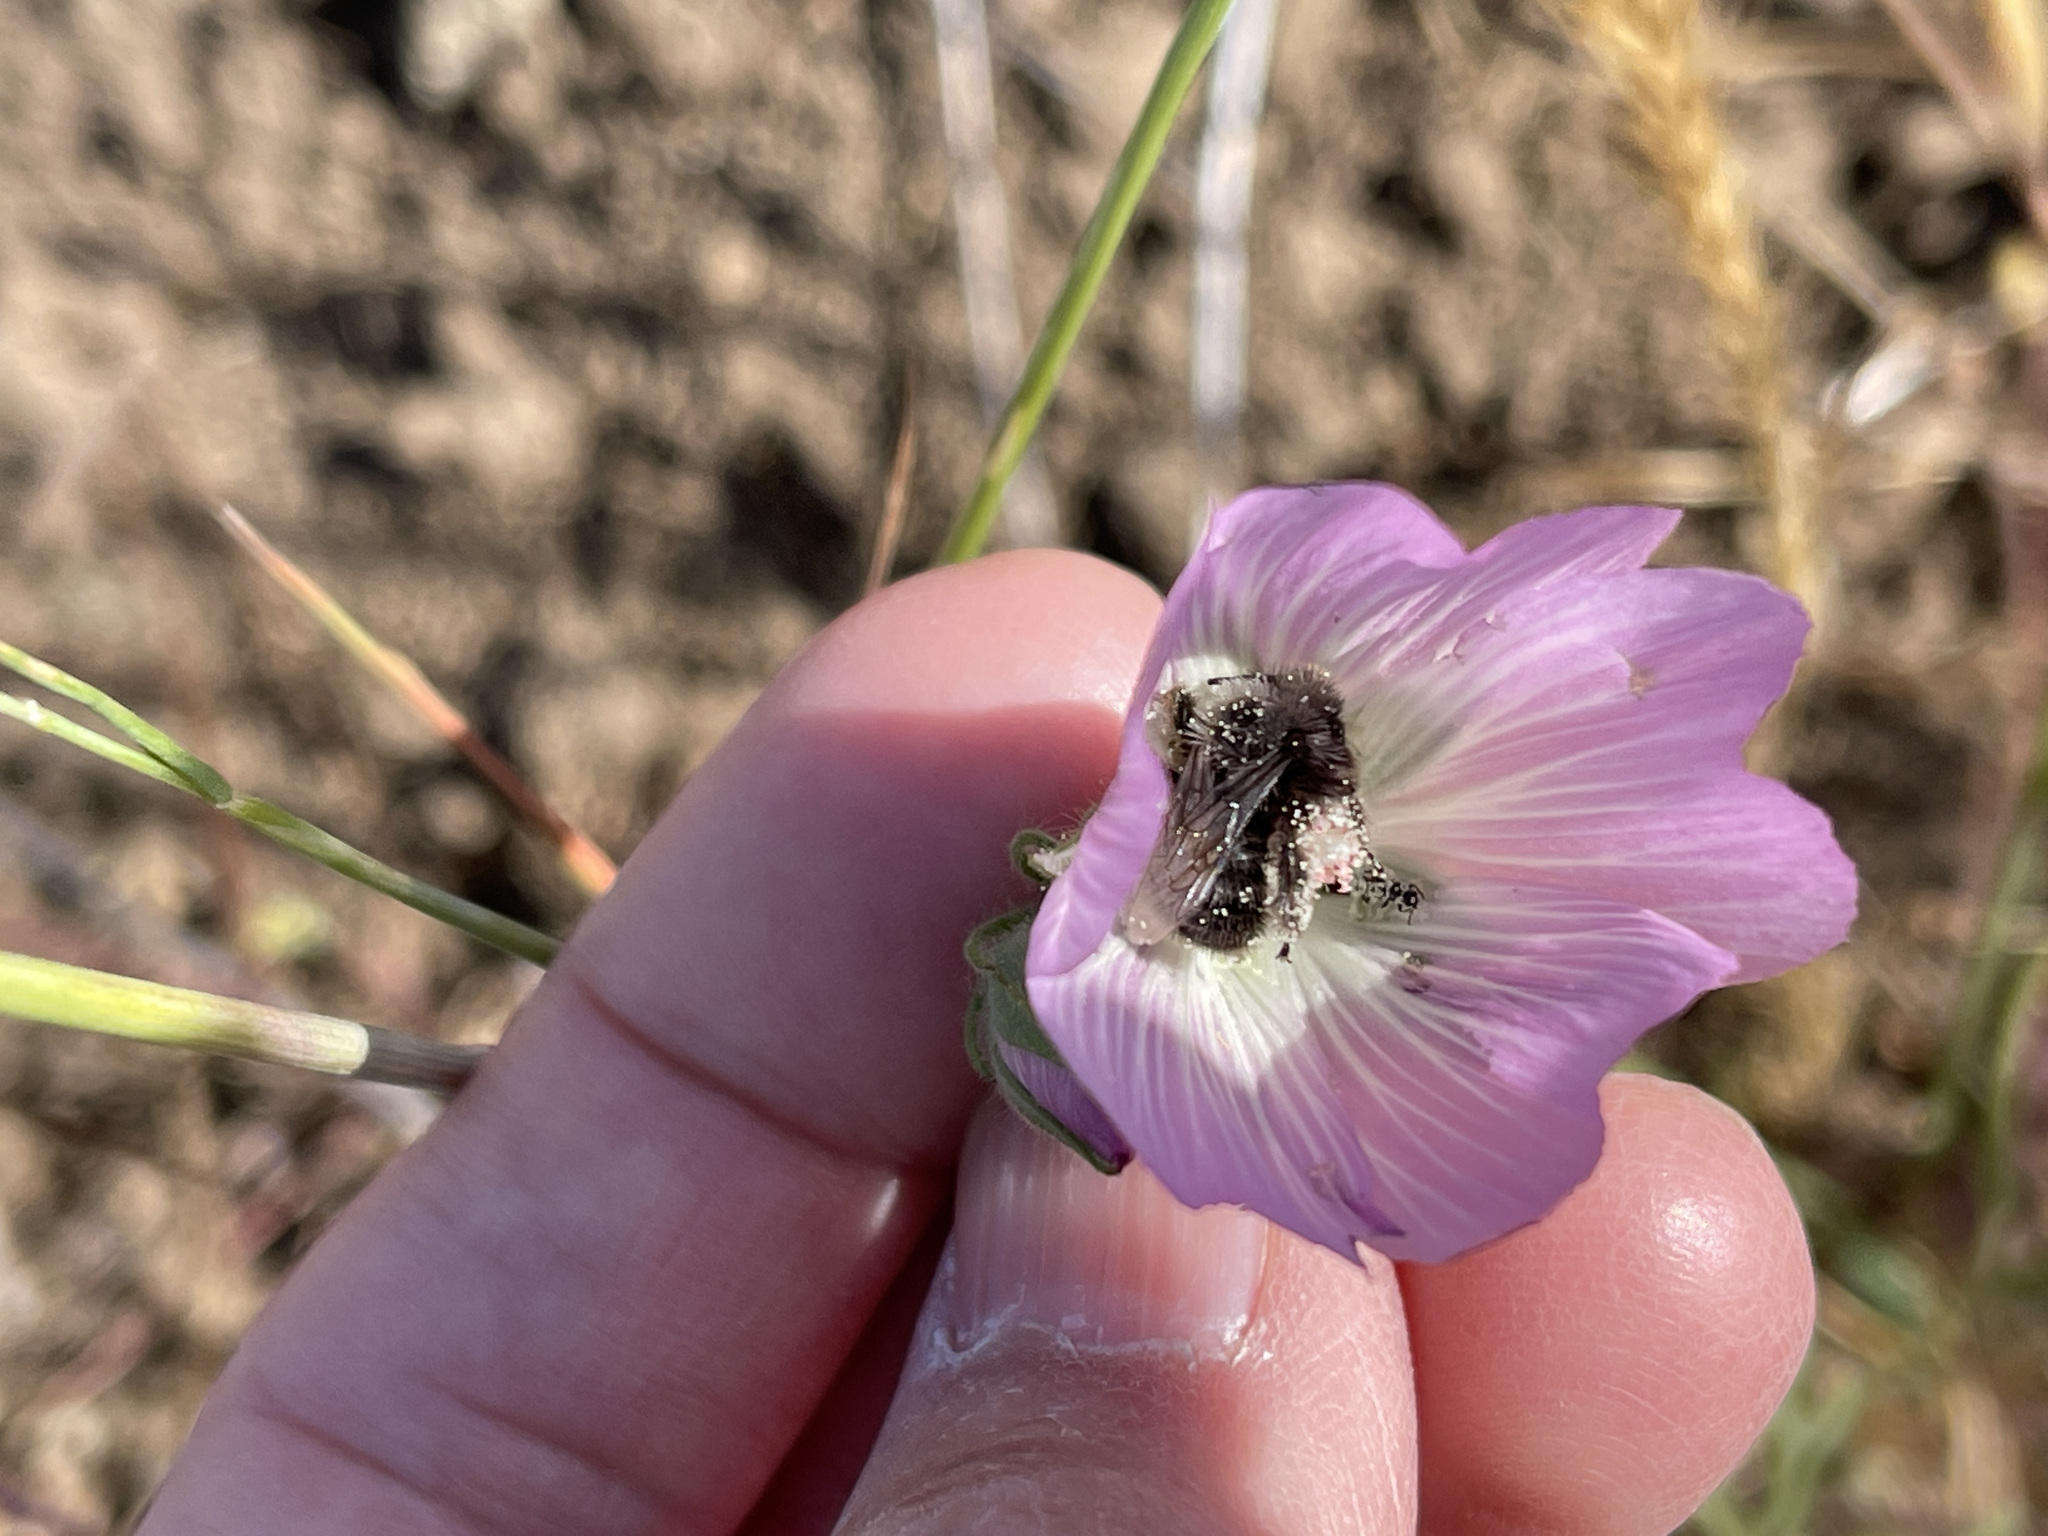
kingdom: Animalia
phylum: Arthropoda
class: Insecta
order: Hymenoptera
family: Apidae
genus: Diadasia
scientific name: Diadasia nigrifrons
